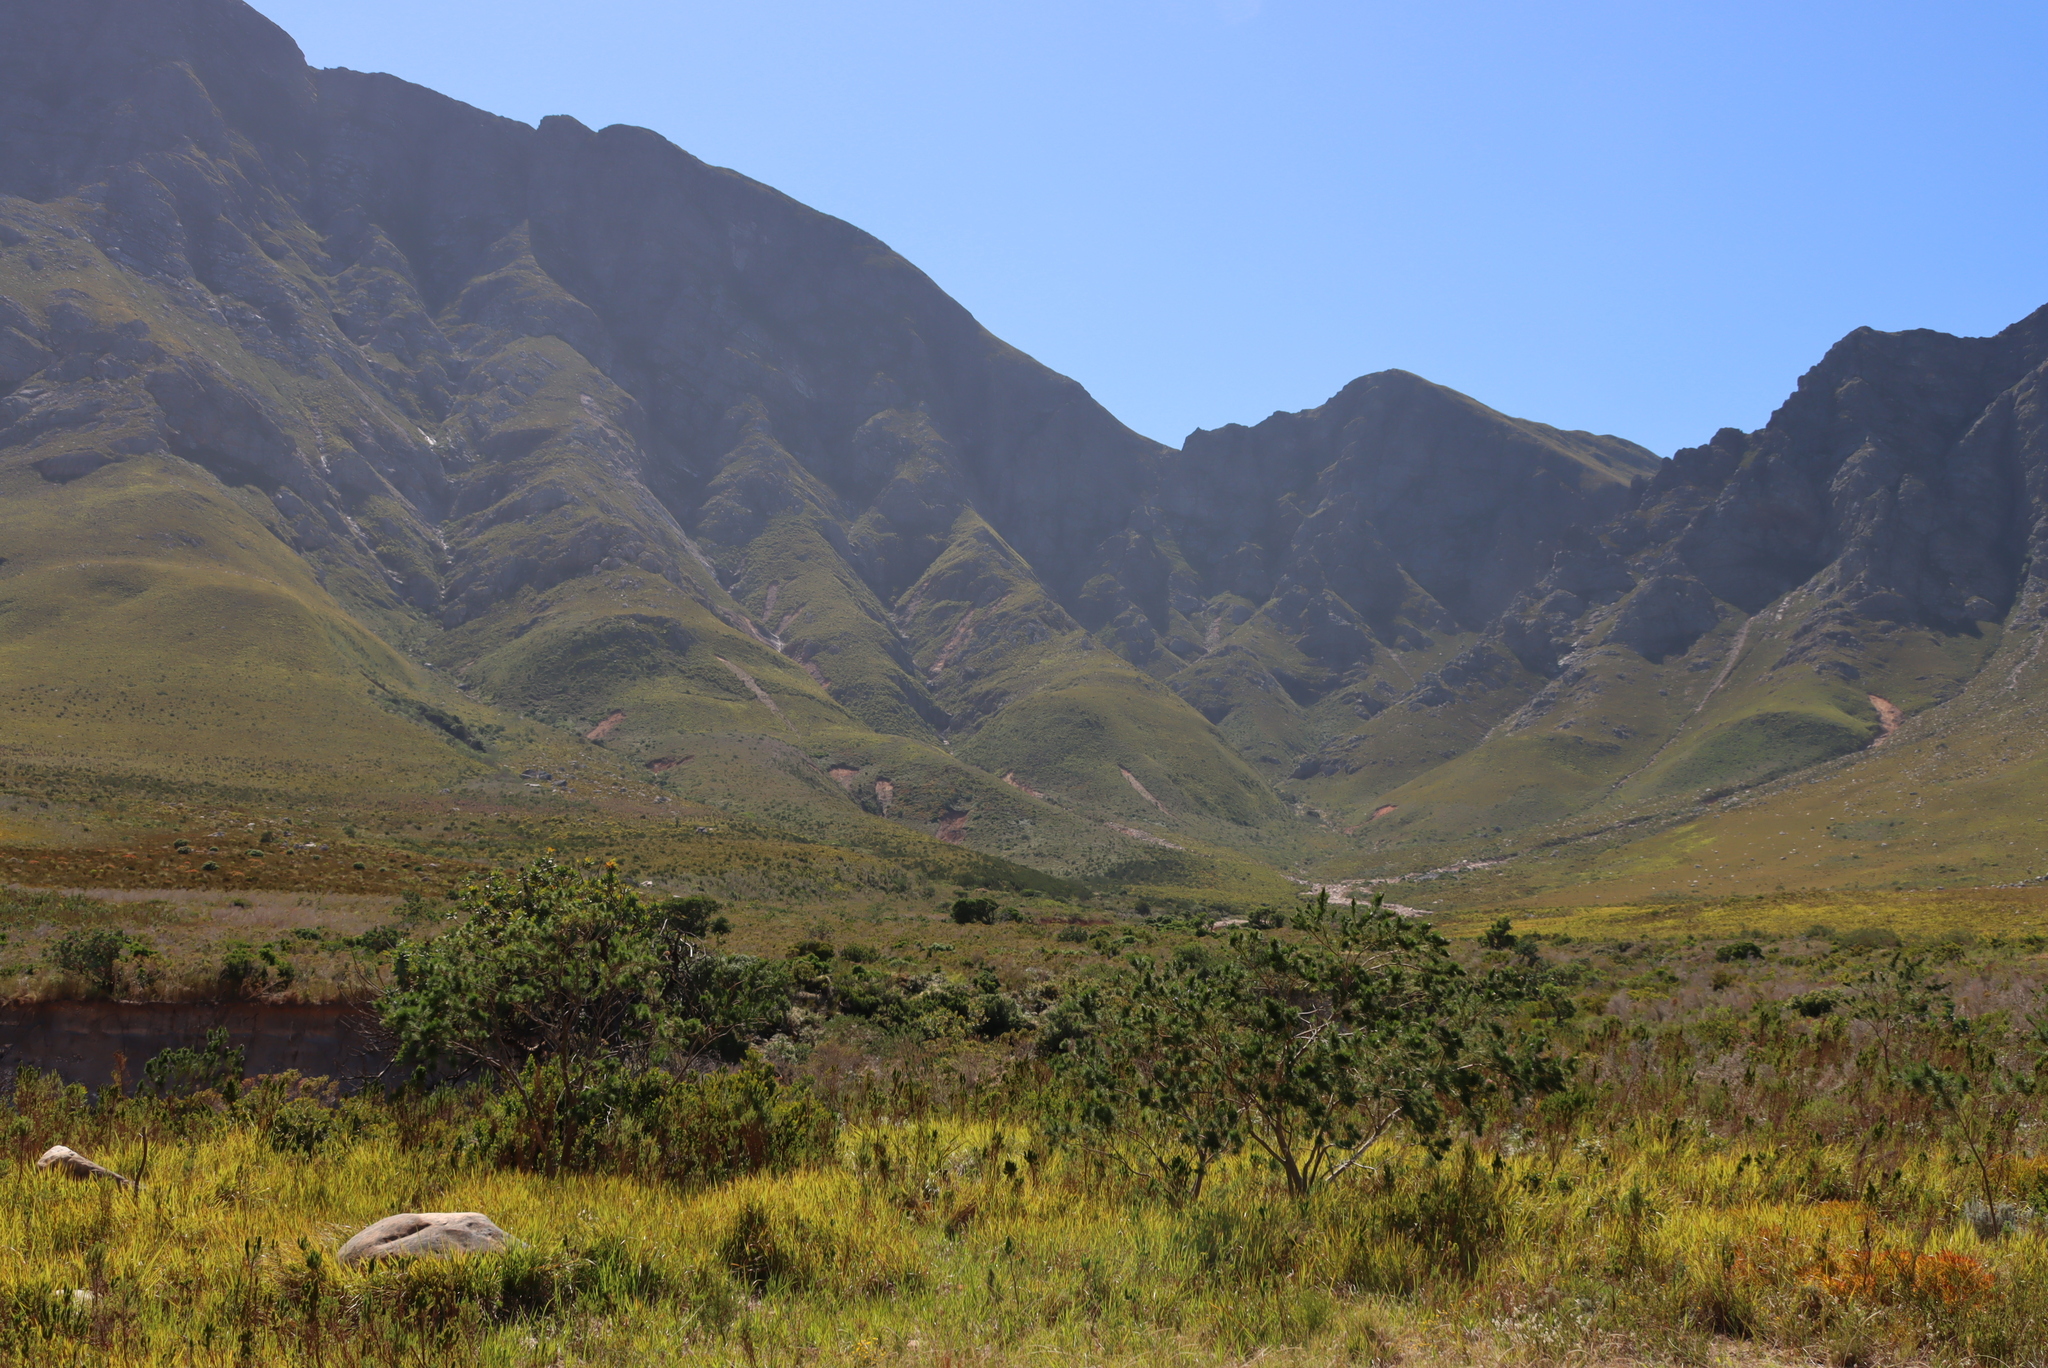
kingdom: Plantae
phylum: Tracheophyta
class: Magnoliopsida
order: Proteales
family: Proteaceae
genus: Brabejum
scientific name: Brabejum stellatifolium
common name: Wild almond
